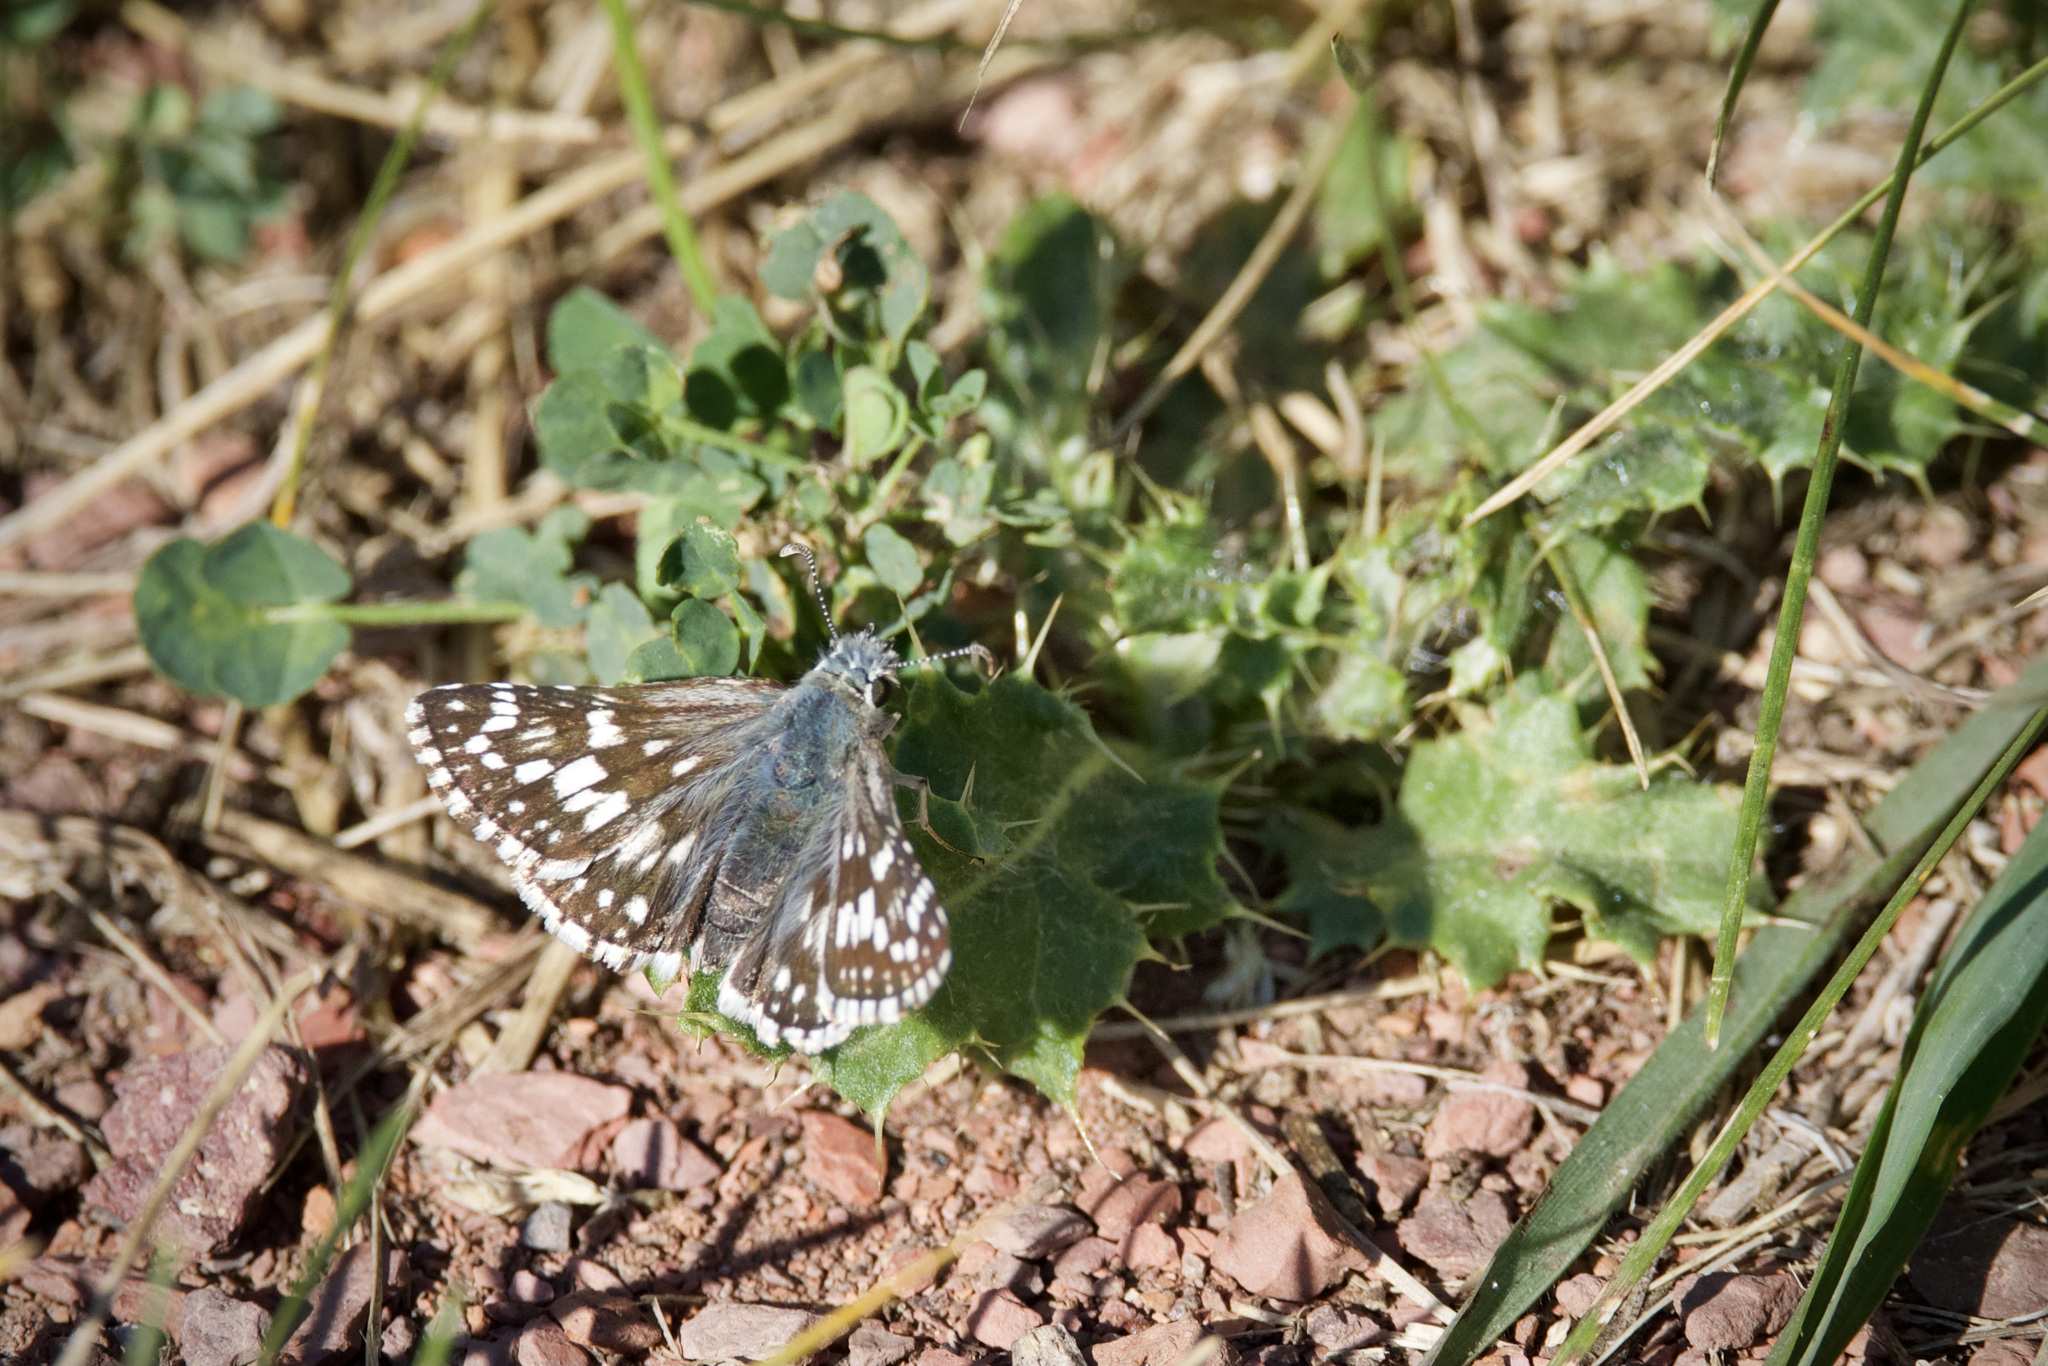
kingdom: Animalia
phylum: Arthropoda
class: Insecta
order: Lepidoptera
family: Hesperiidae
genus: Burnsius
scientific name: Burnsius communis
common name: Common checkered-skipper
